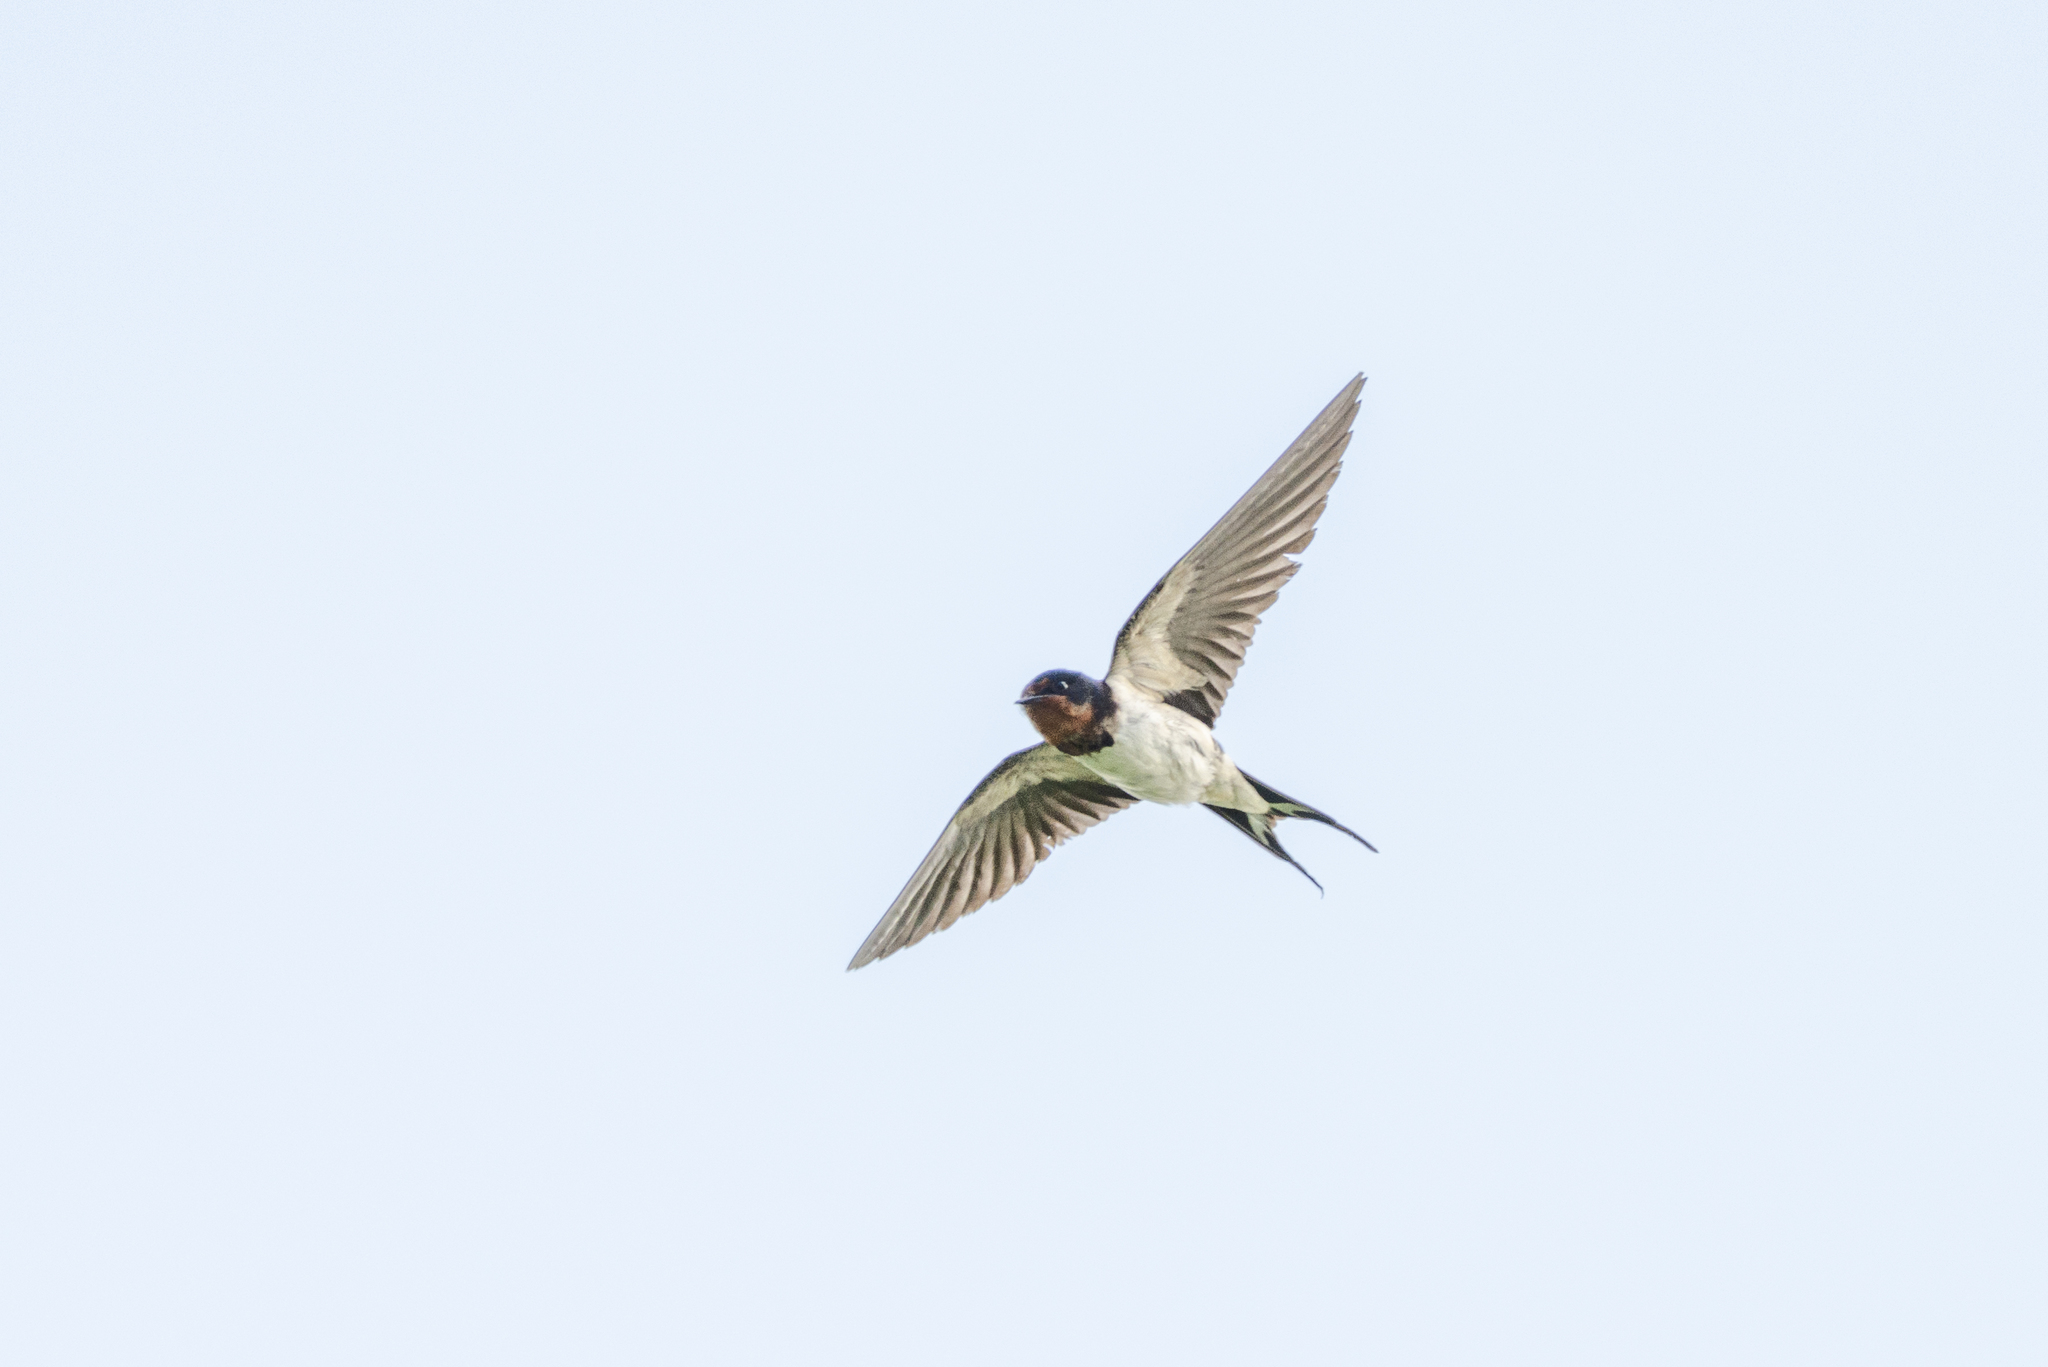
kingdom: Animalia
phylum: Chordata
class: Aves
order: Passeriformes
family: Hirundinidae
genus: Hirundo
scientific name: Hirundo rustica
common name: Barn swallow
